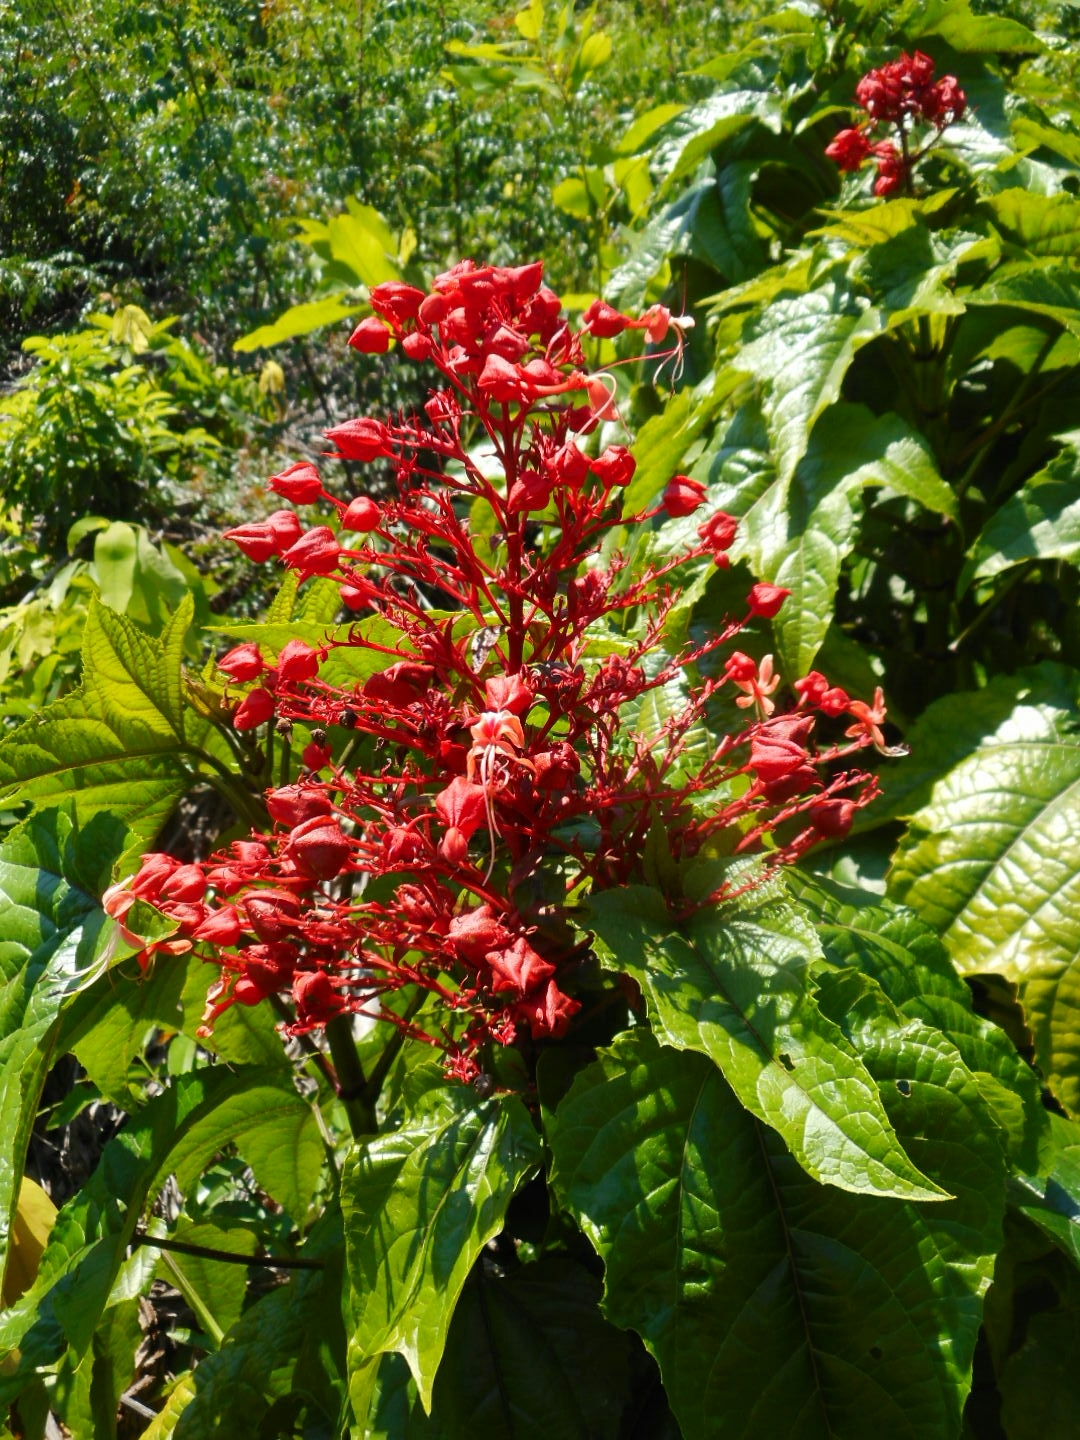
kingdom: Plantae
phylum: Tracheophyta
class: Magnoliopsida
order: Lamiales
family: Lamiaceae
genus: Clerodendrum
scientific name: Clerodendrum paniculatum
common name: Pagoda-flower
